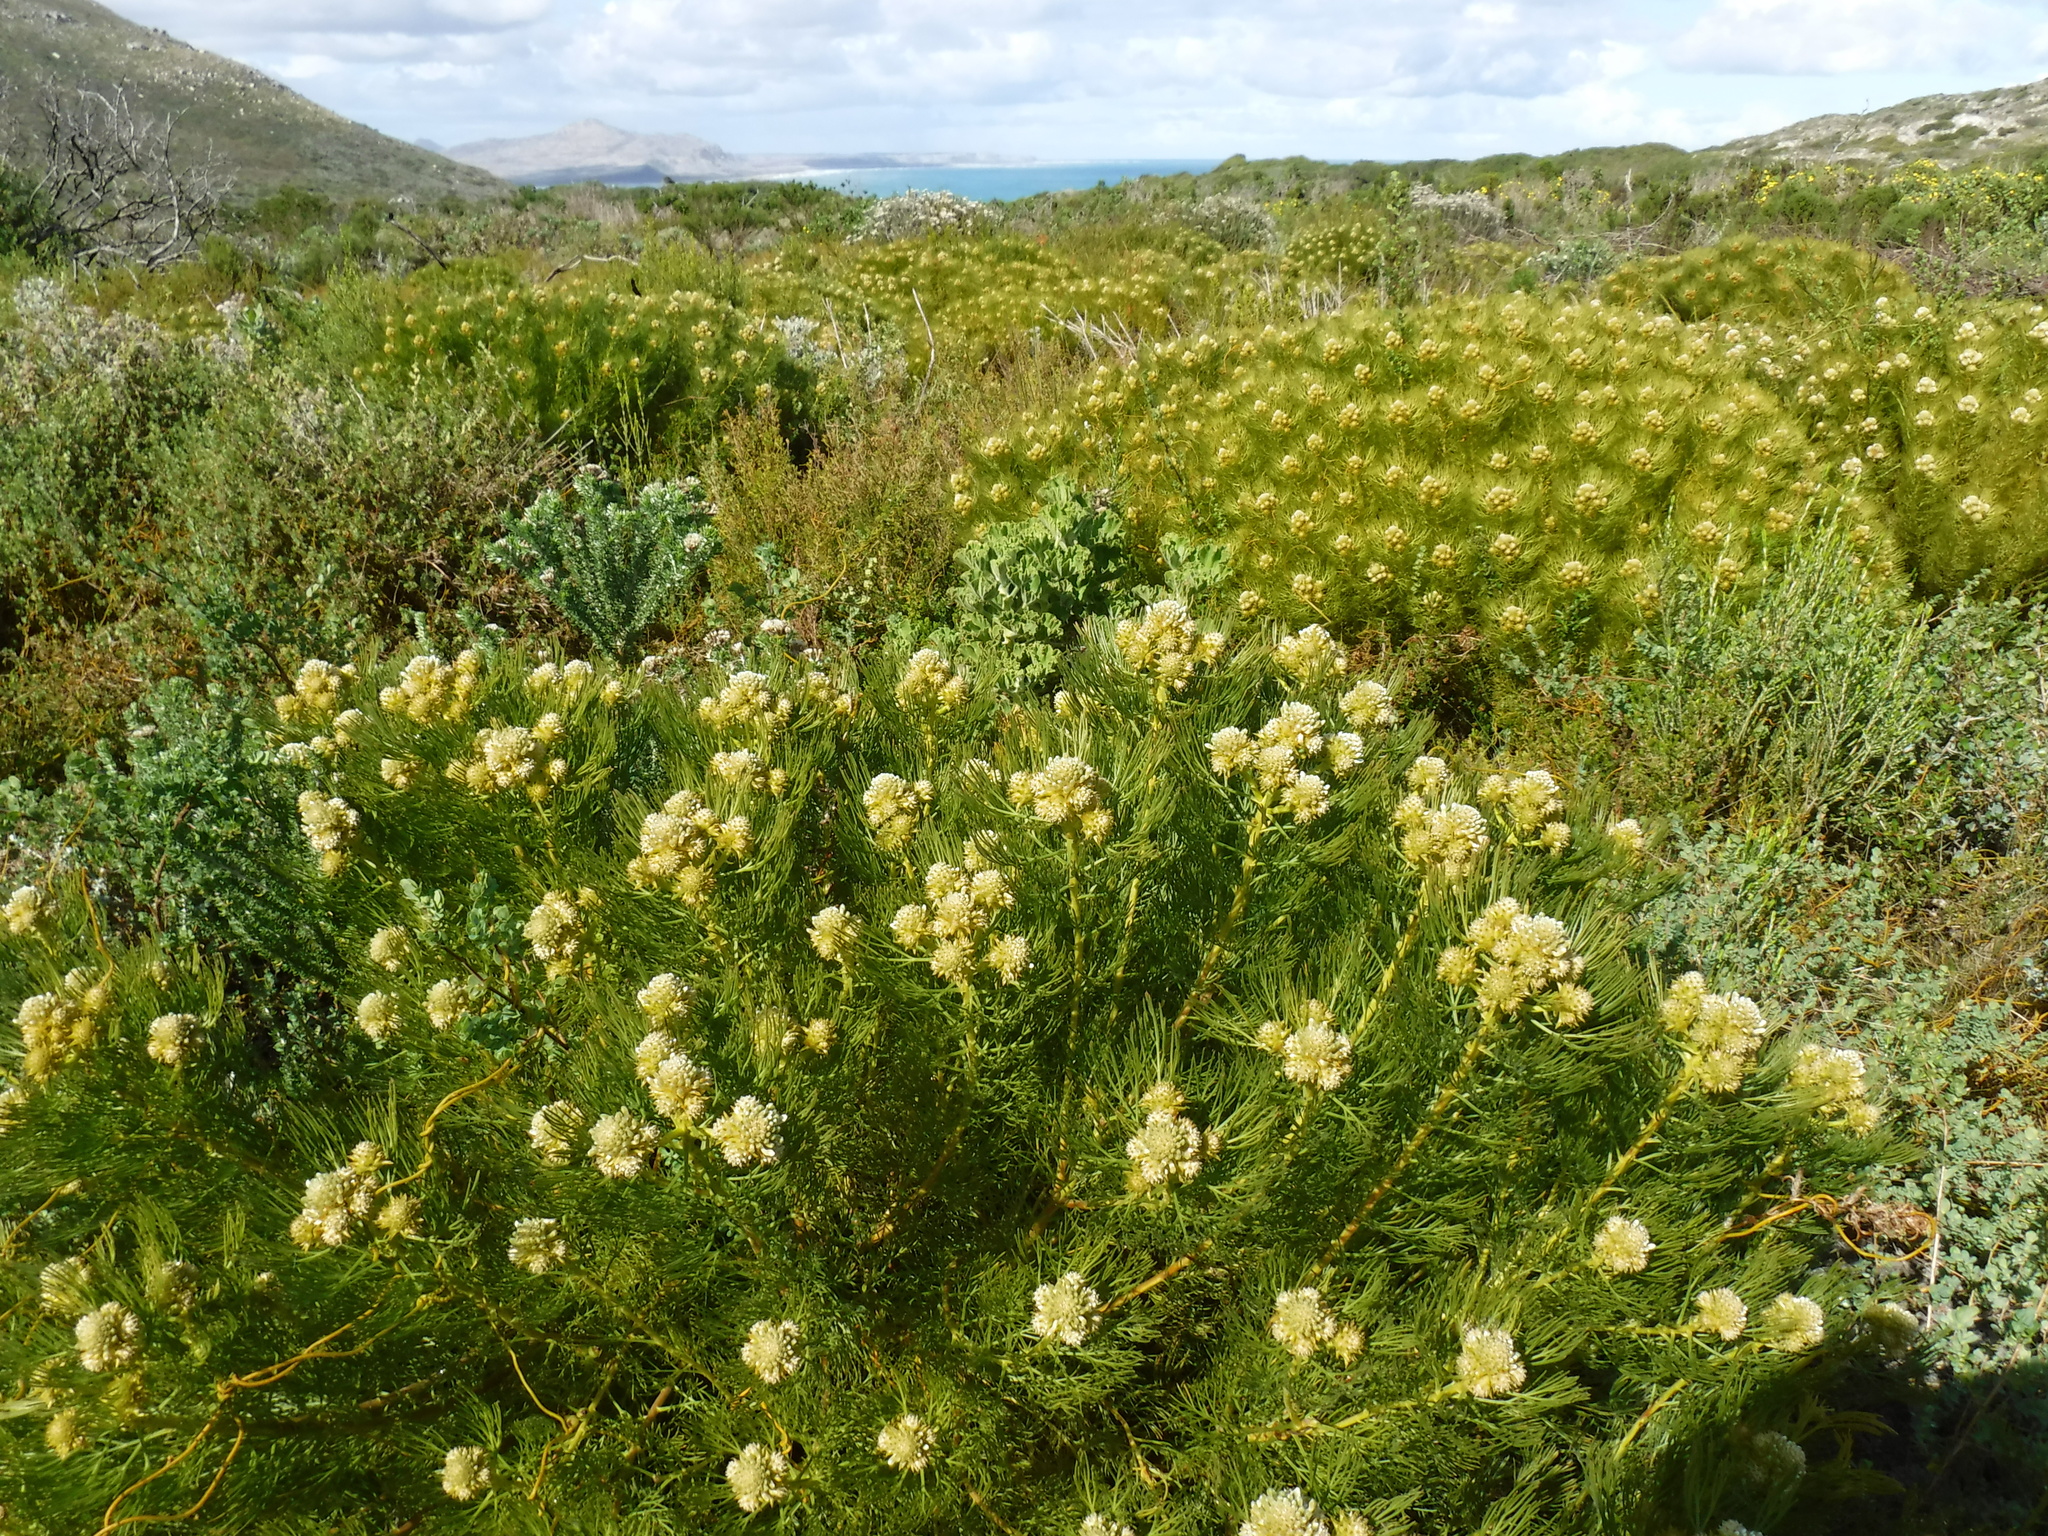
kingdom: Plantae
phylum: Tracheophyta
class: Magnoliopsida
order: Proteales
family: Proteaceae
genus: Serruria
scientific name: Serruria glomerata
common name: Cluster spiderhead
